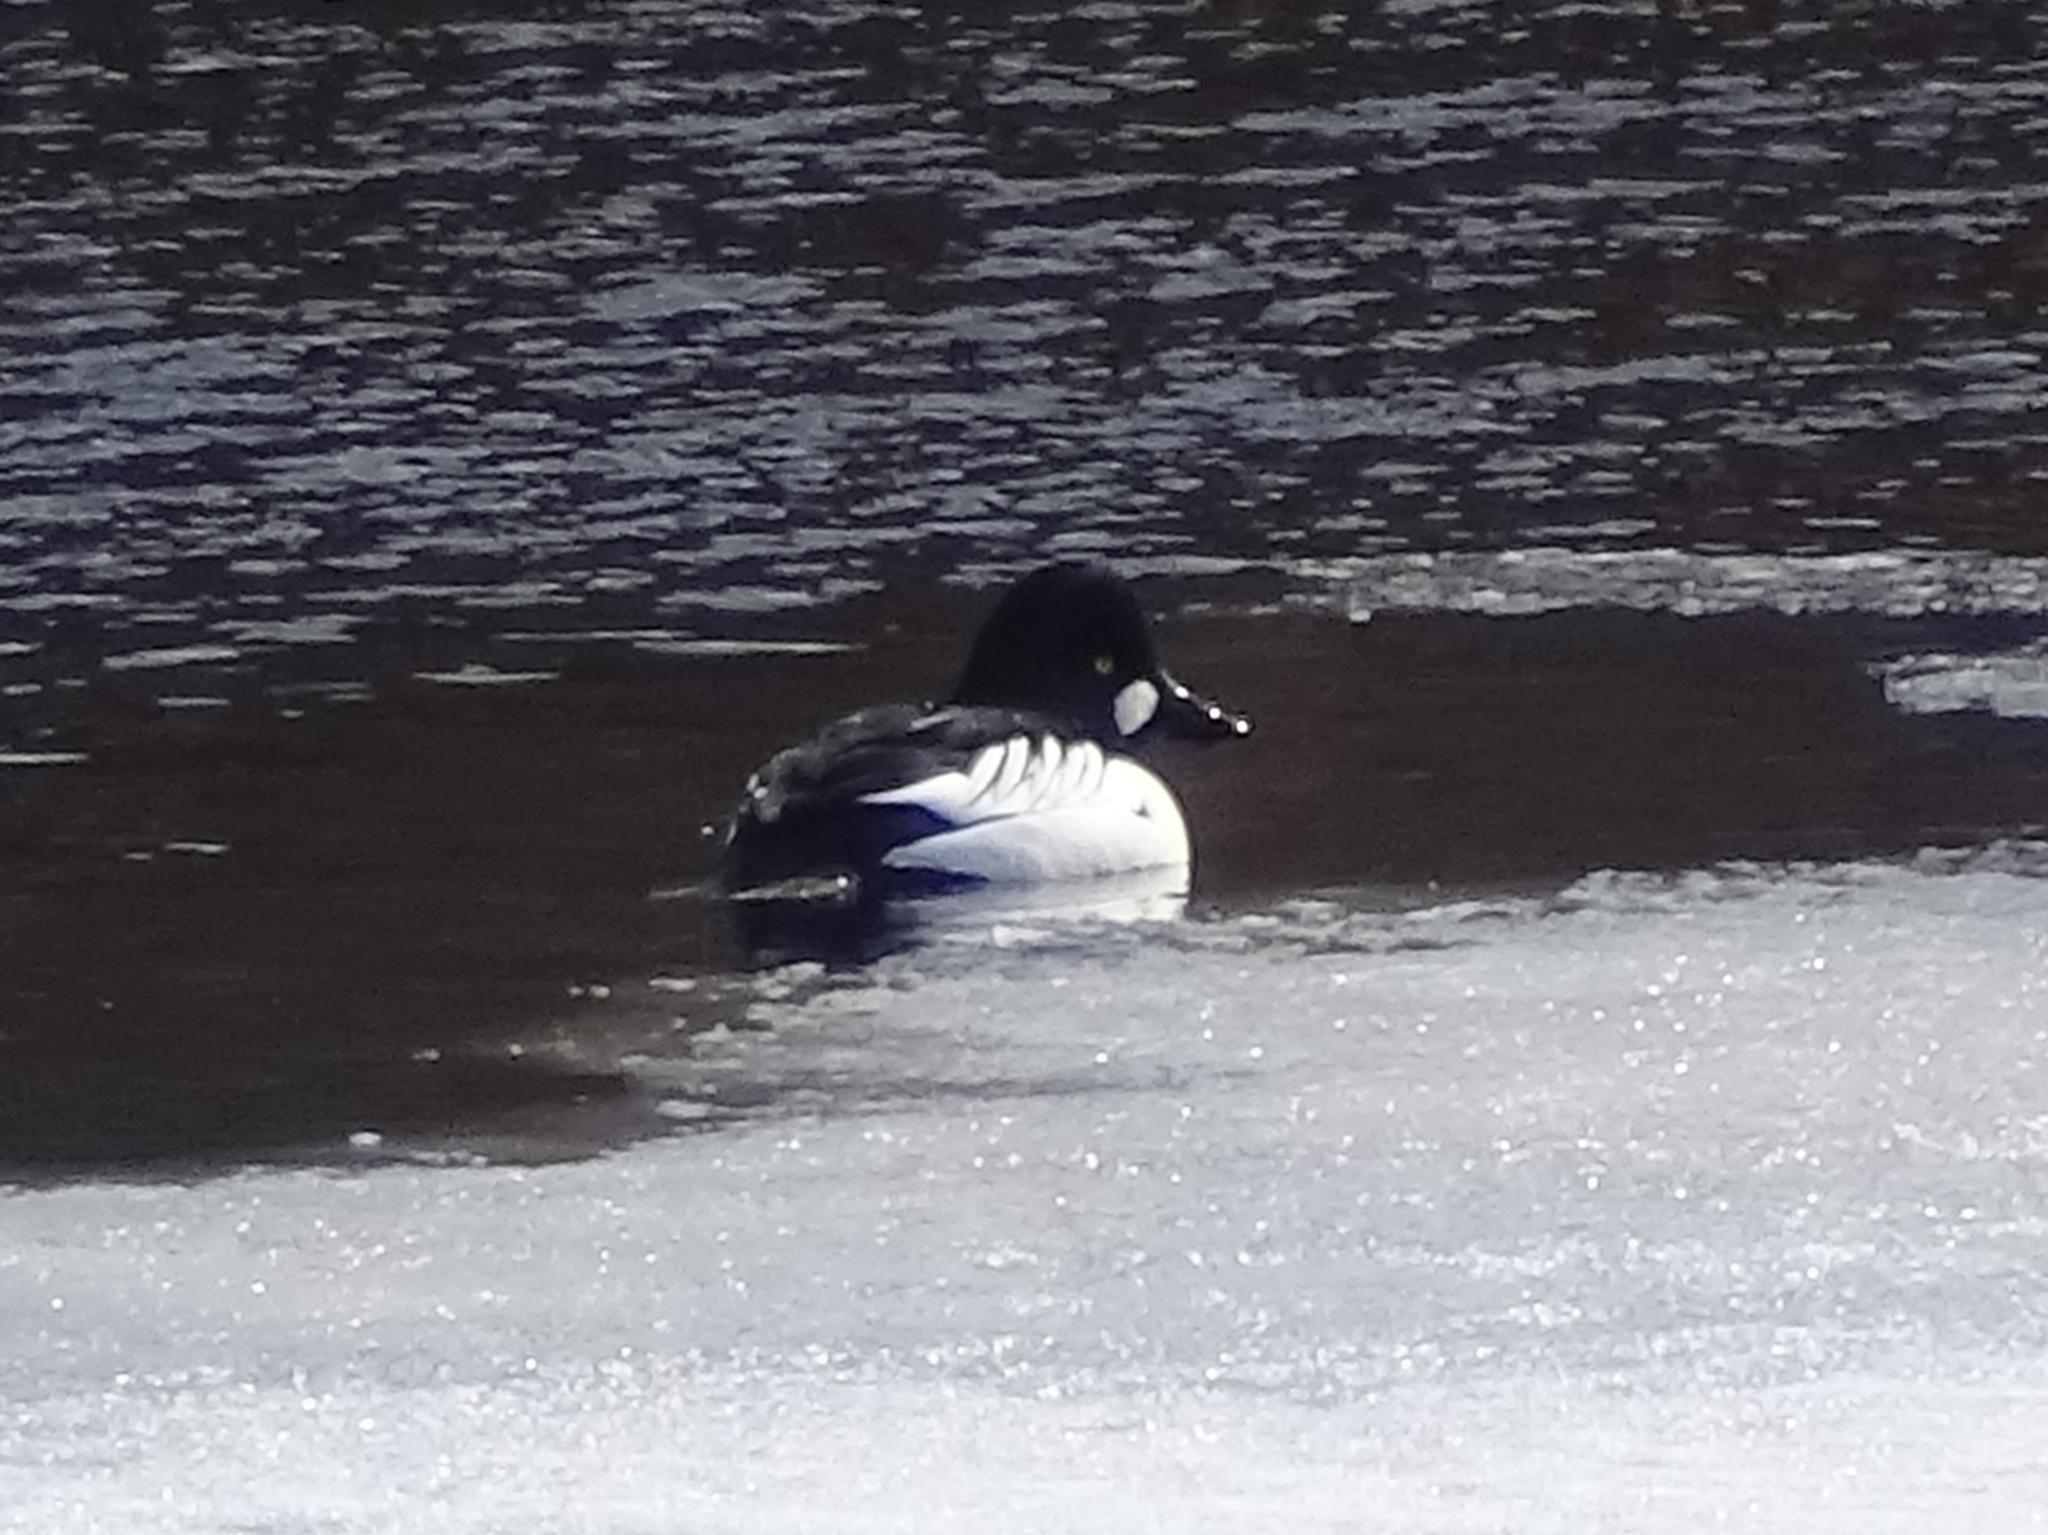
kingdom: Animalia
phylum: Chordata
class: Aves
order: Anseriformes
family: Anatidae
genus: Bucephala
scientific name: Bucephala clangula
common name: Common goldeneye
